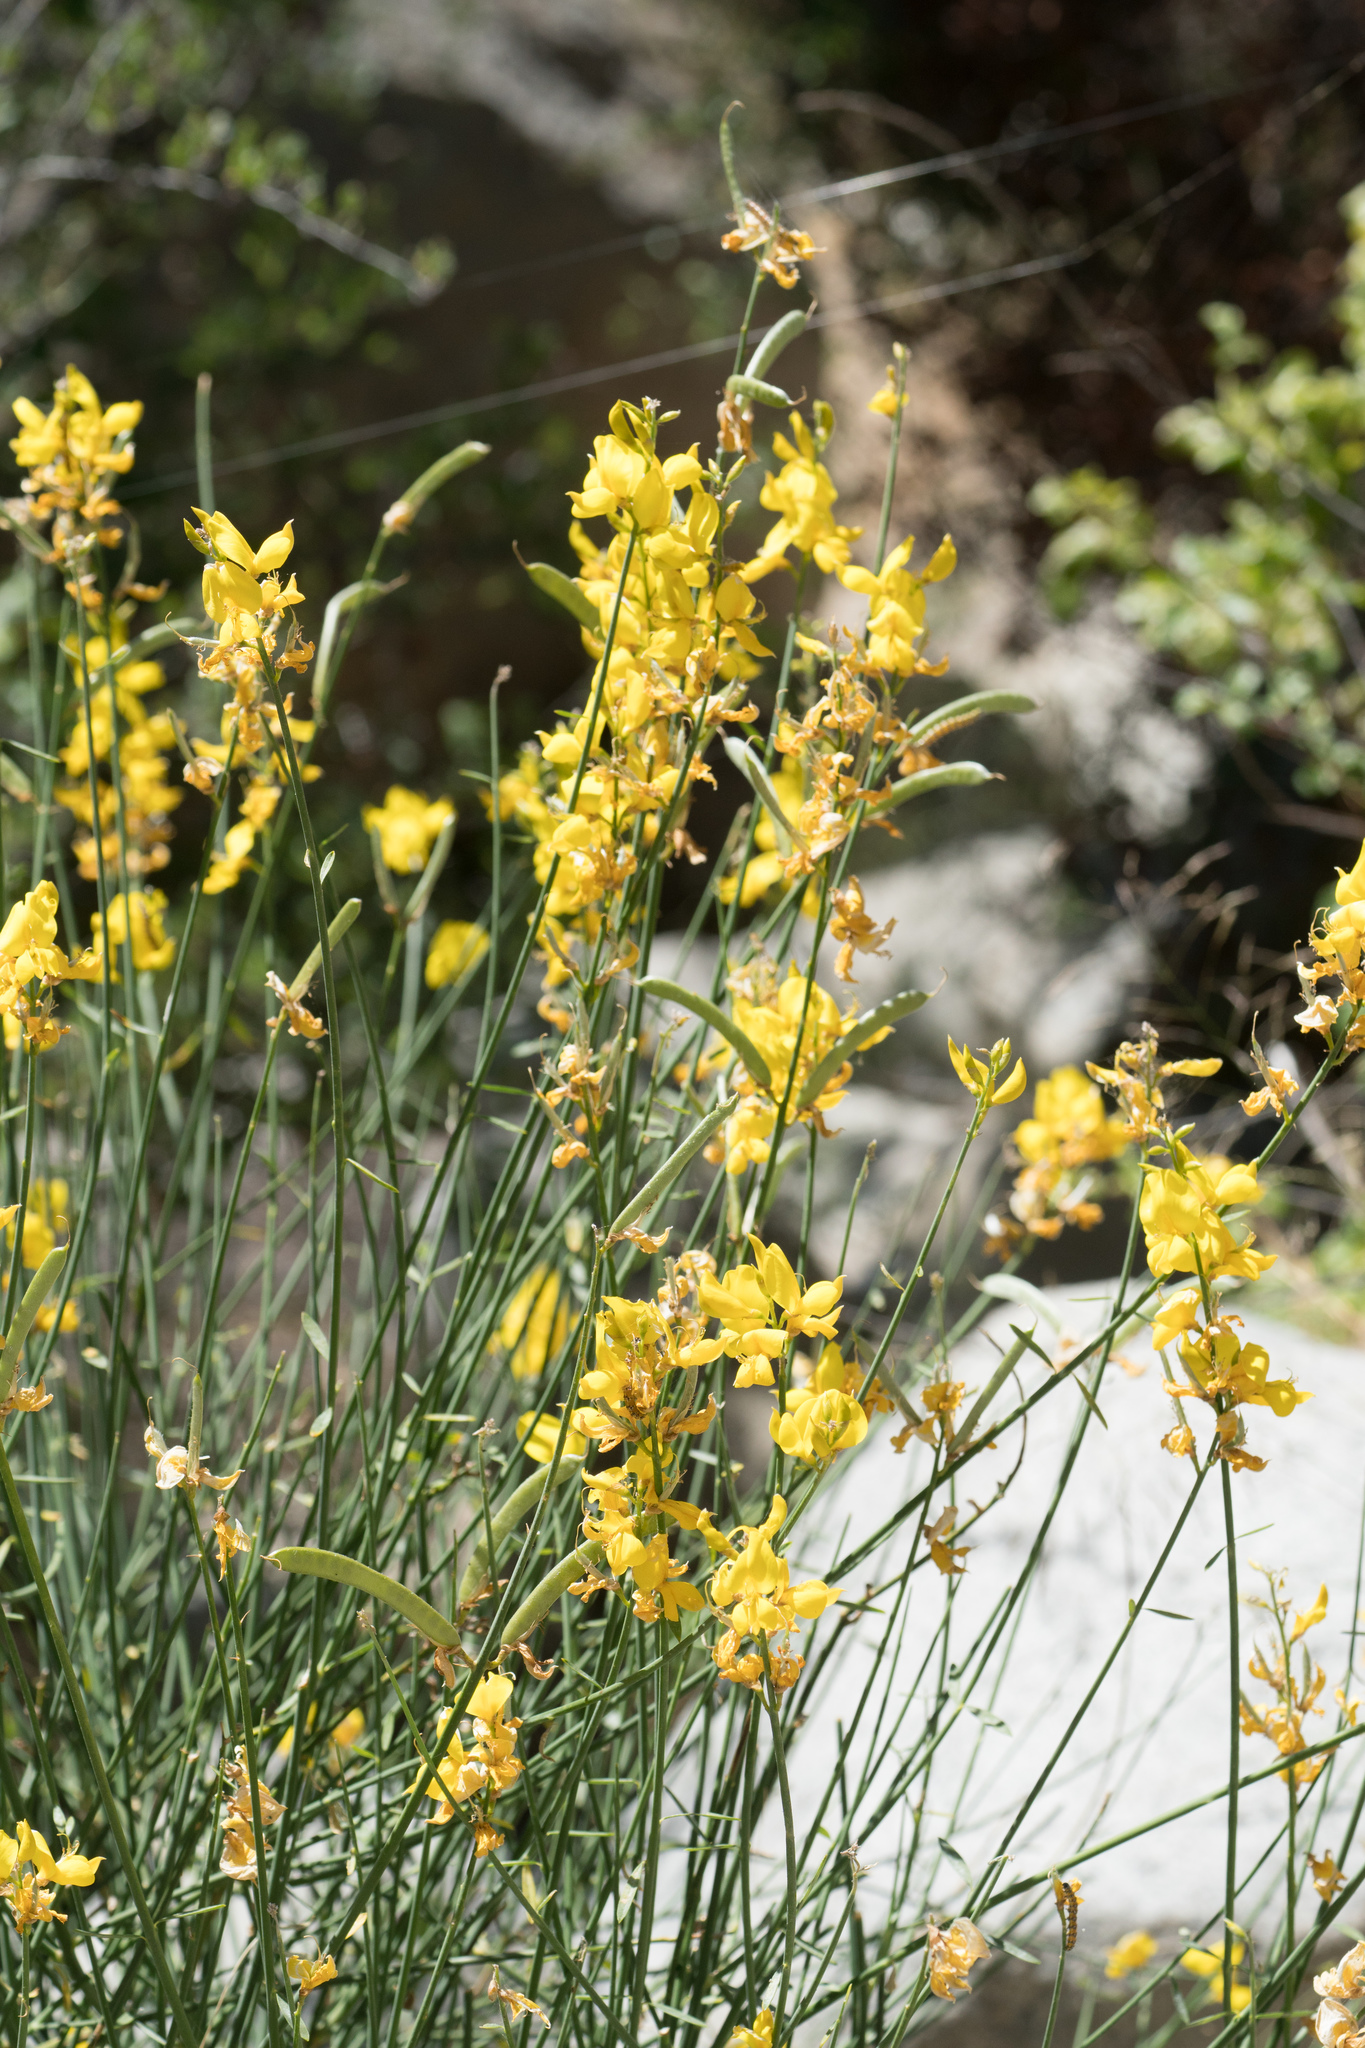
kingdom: Plantae
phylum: Tracheophyta
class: Magnoliopsida
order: Fabales
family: Fabaceae
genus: Spartium
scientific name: Spartium junceum
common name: Spanish broom
